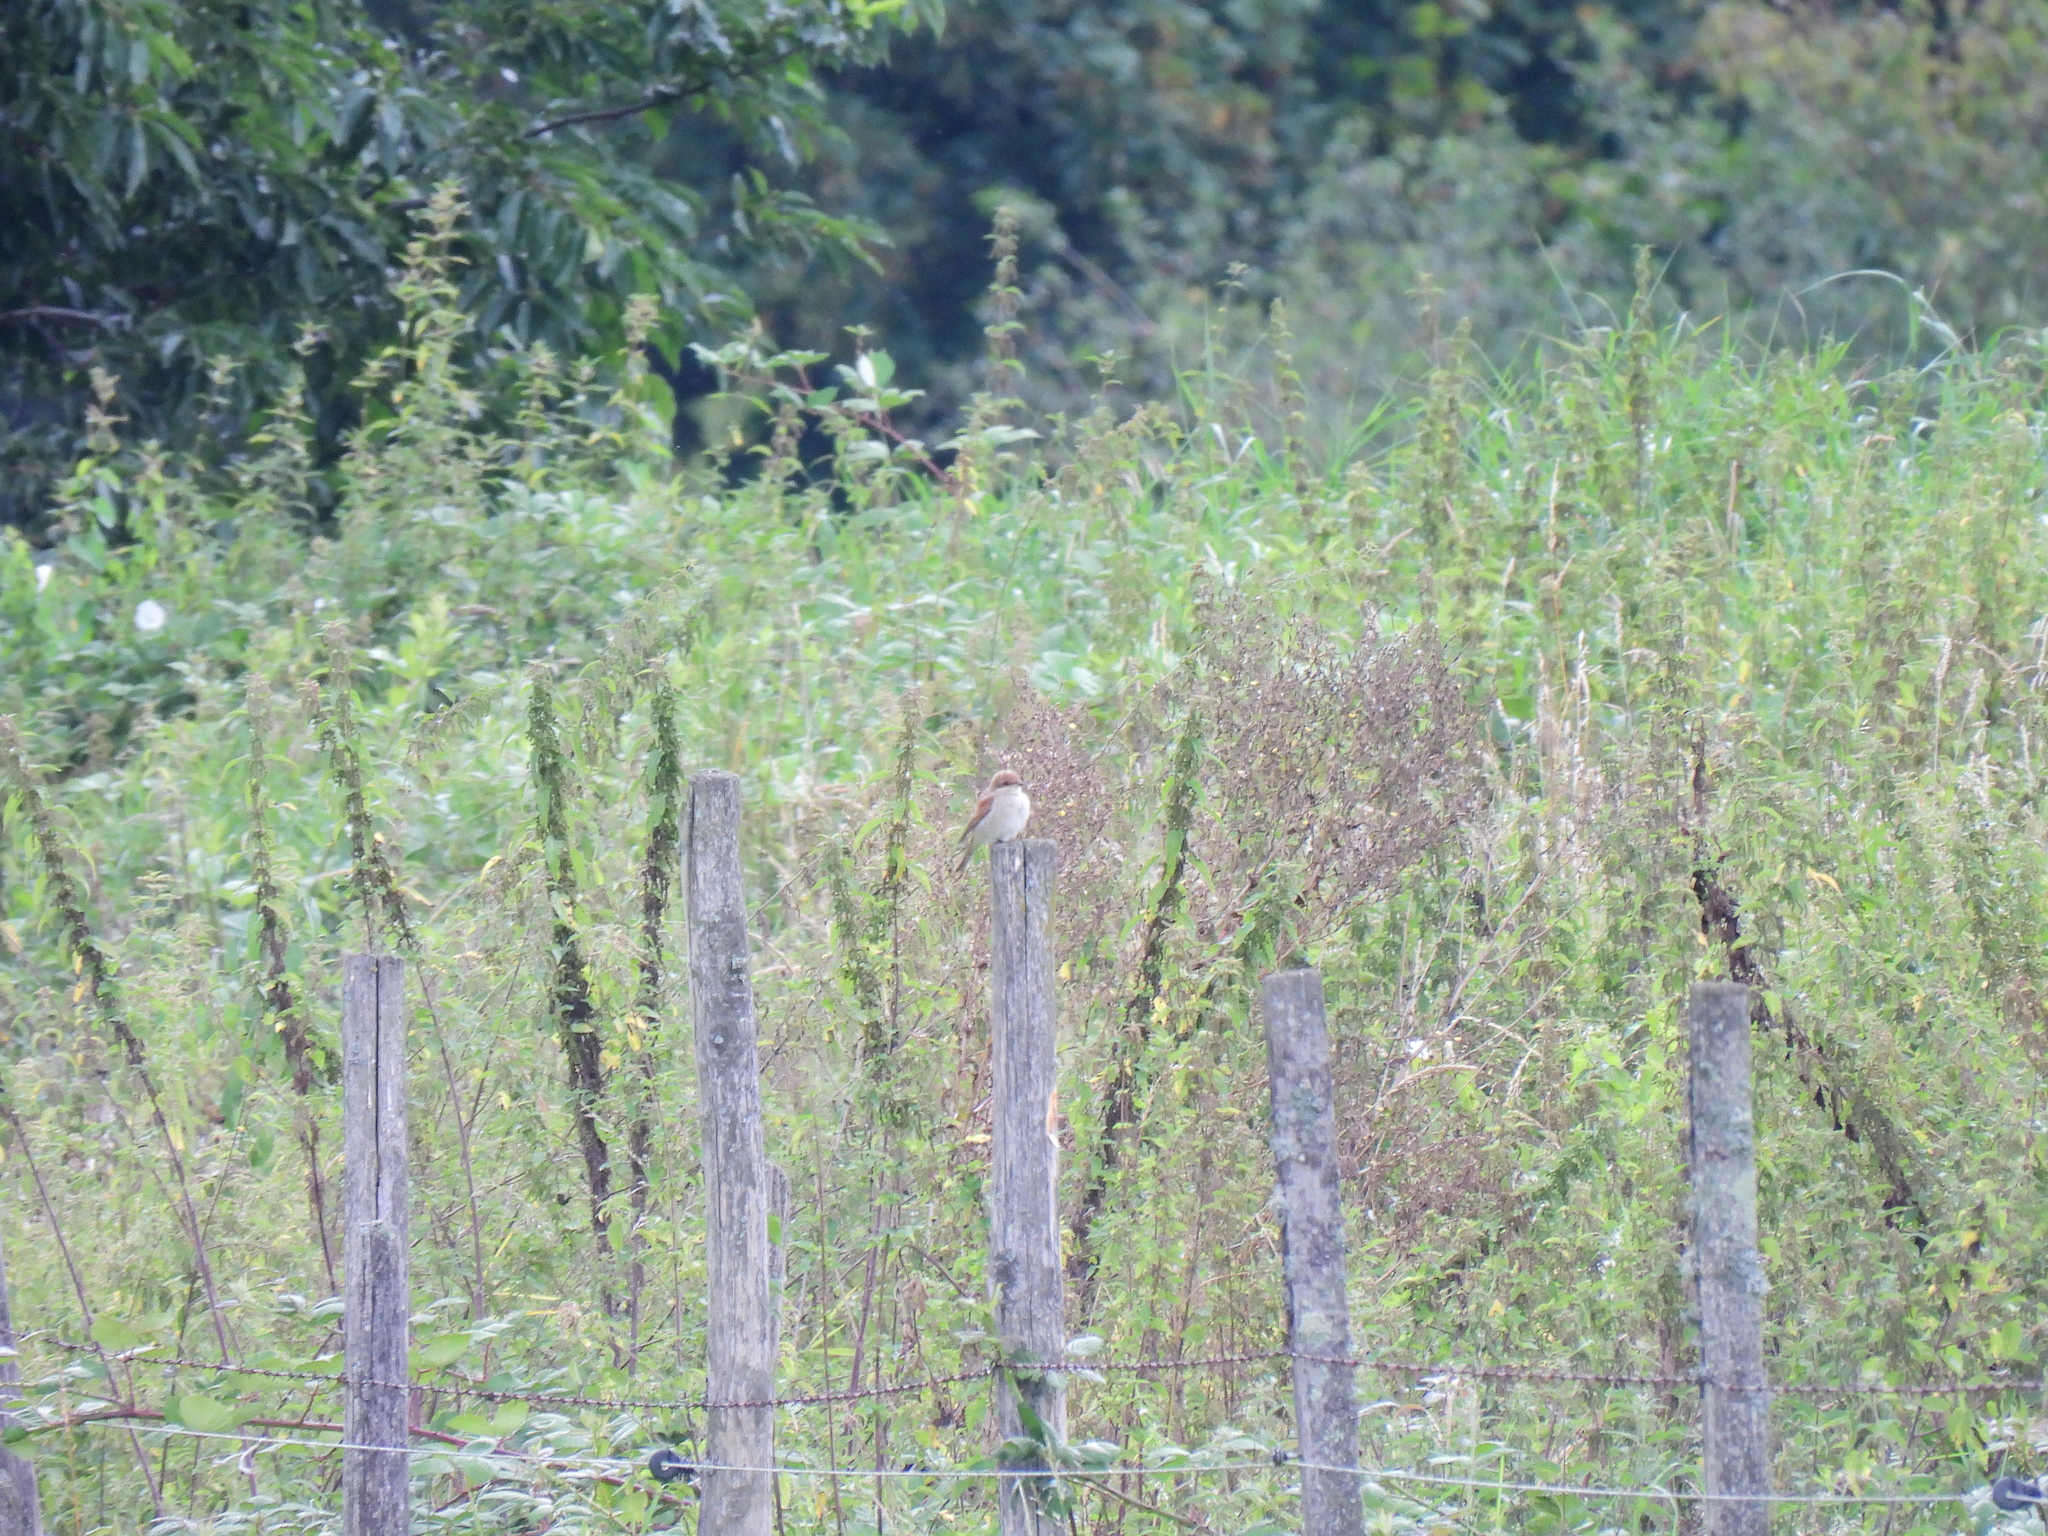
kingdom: Animalia
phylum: Chordata
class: Aves
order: Passeriformes
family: Laniidae
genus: Lanius
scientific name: Lanius collurio
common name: Red-backed shrike
